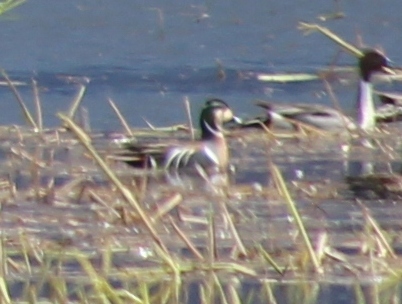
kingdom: Animalia
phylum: Chordata
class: Aves
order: Anseriformes
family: Anatidae
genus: Sibirionetta
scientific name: Sibirionetta formosa
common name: Baikal teal
